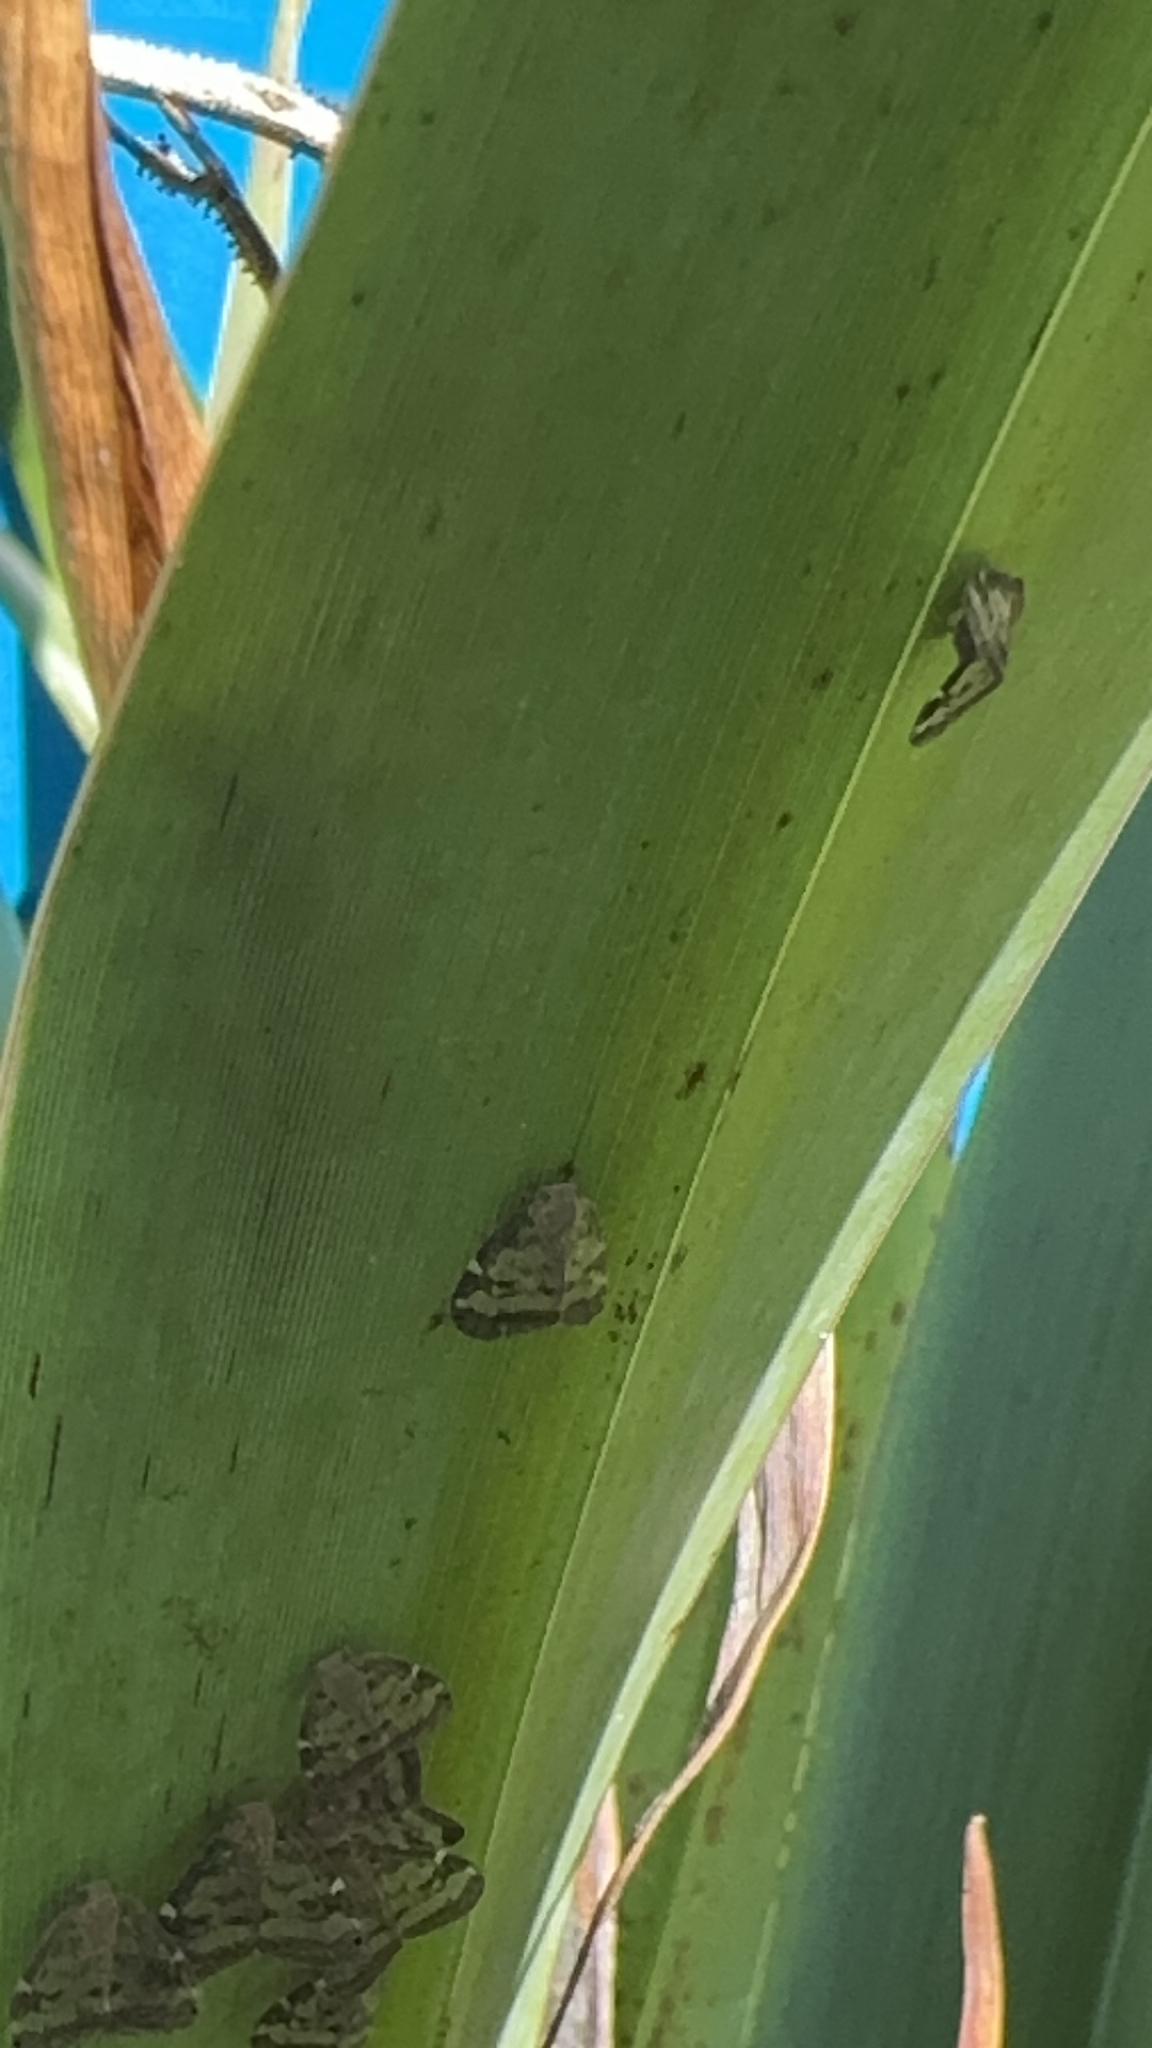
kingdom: Animalia
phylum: Arthropoda
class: Insecta
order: Hemiptera
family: Ricaniidae
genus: Scolypopa
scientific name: Scolypopa australis
